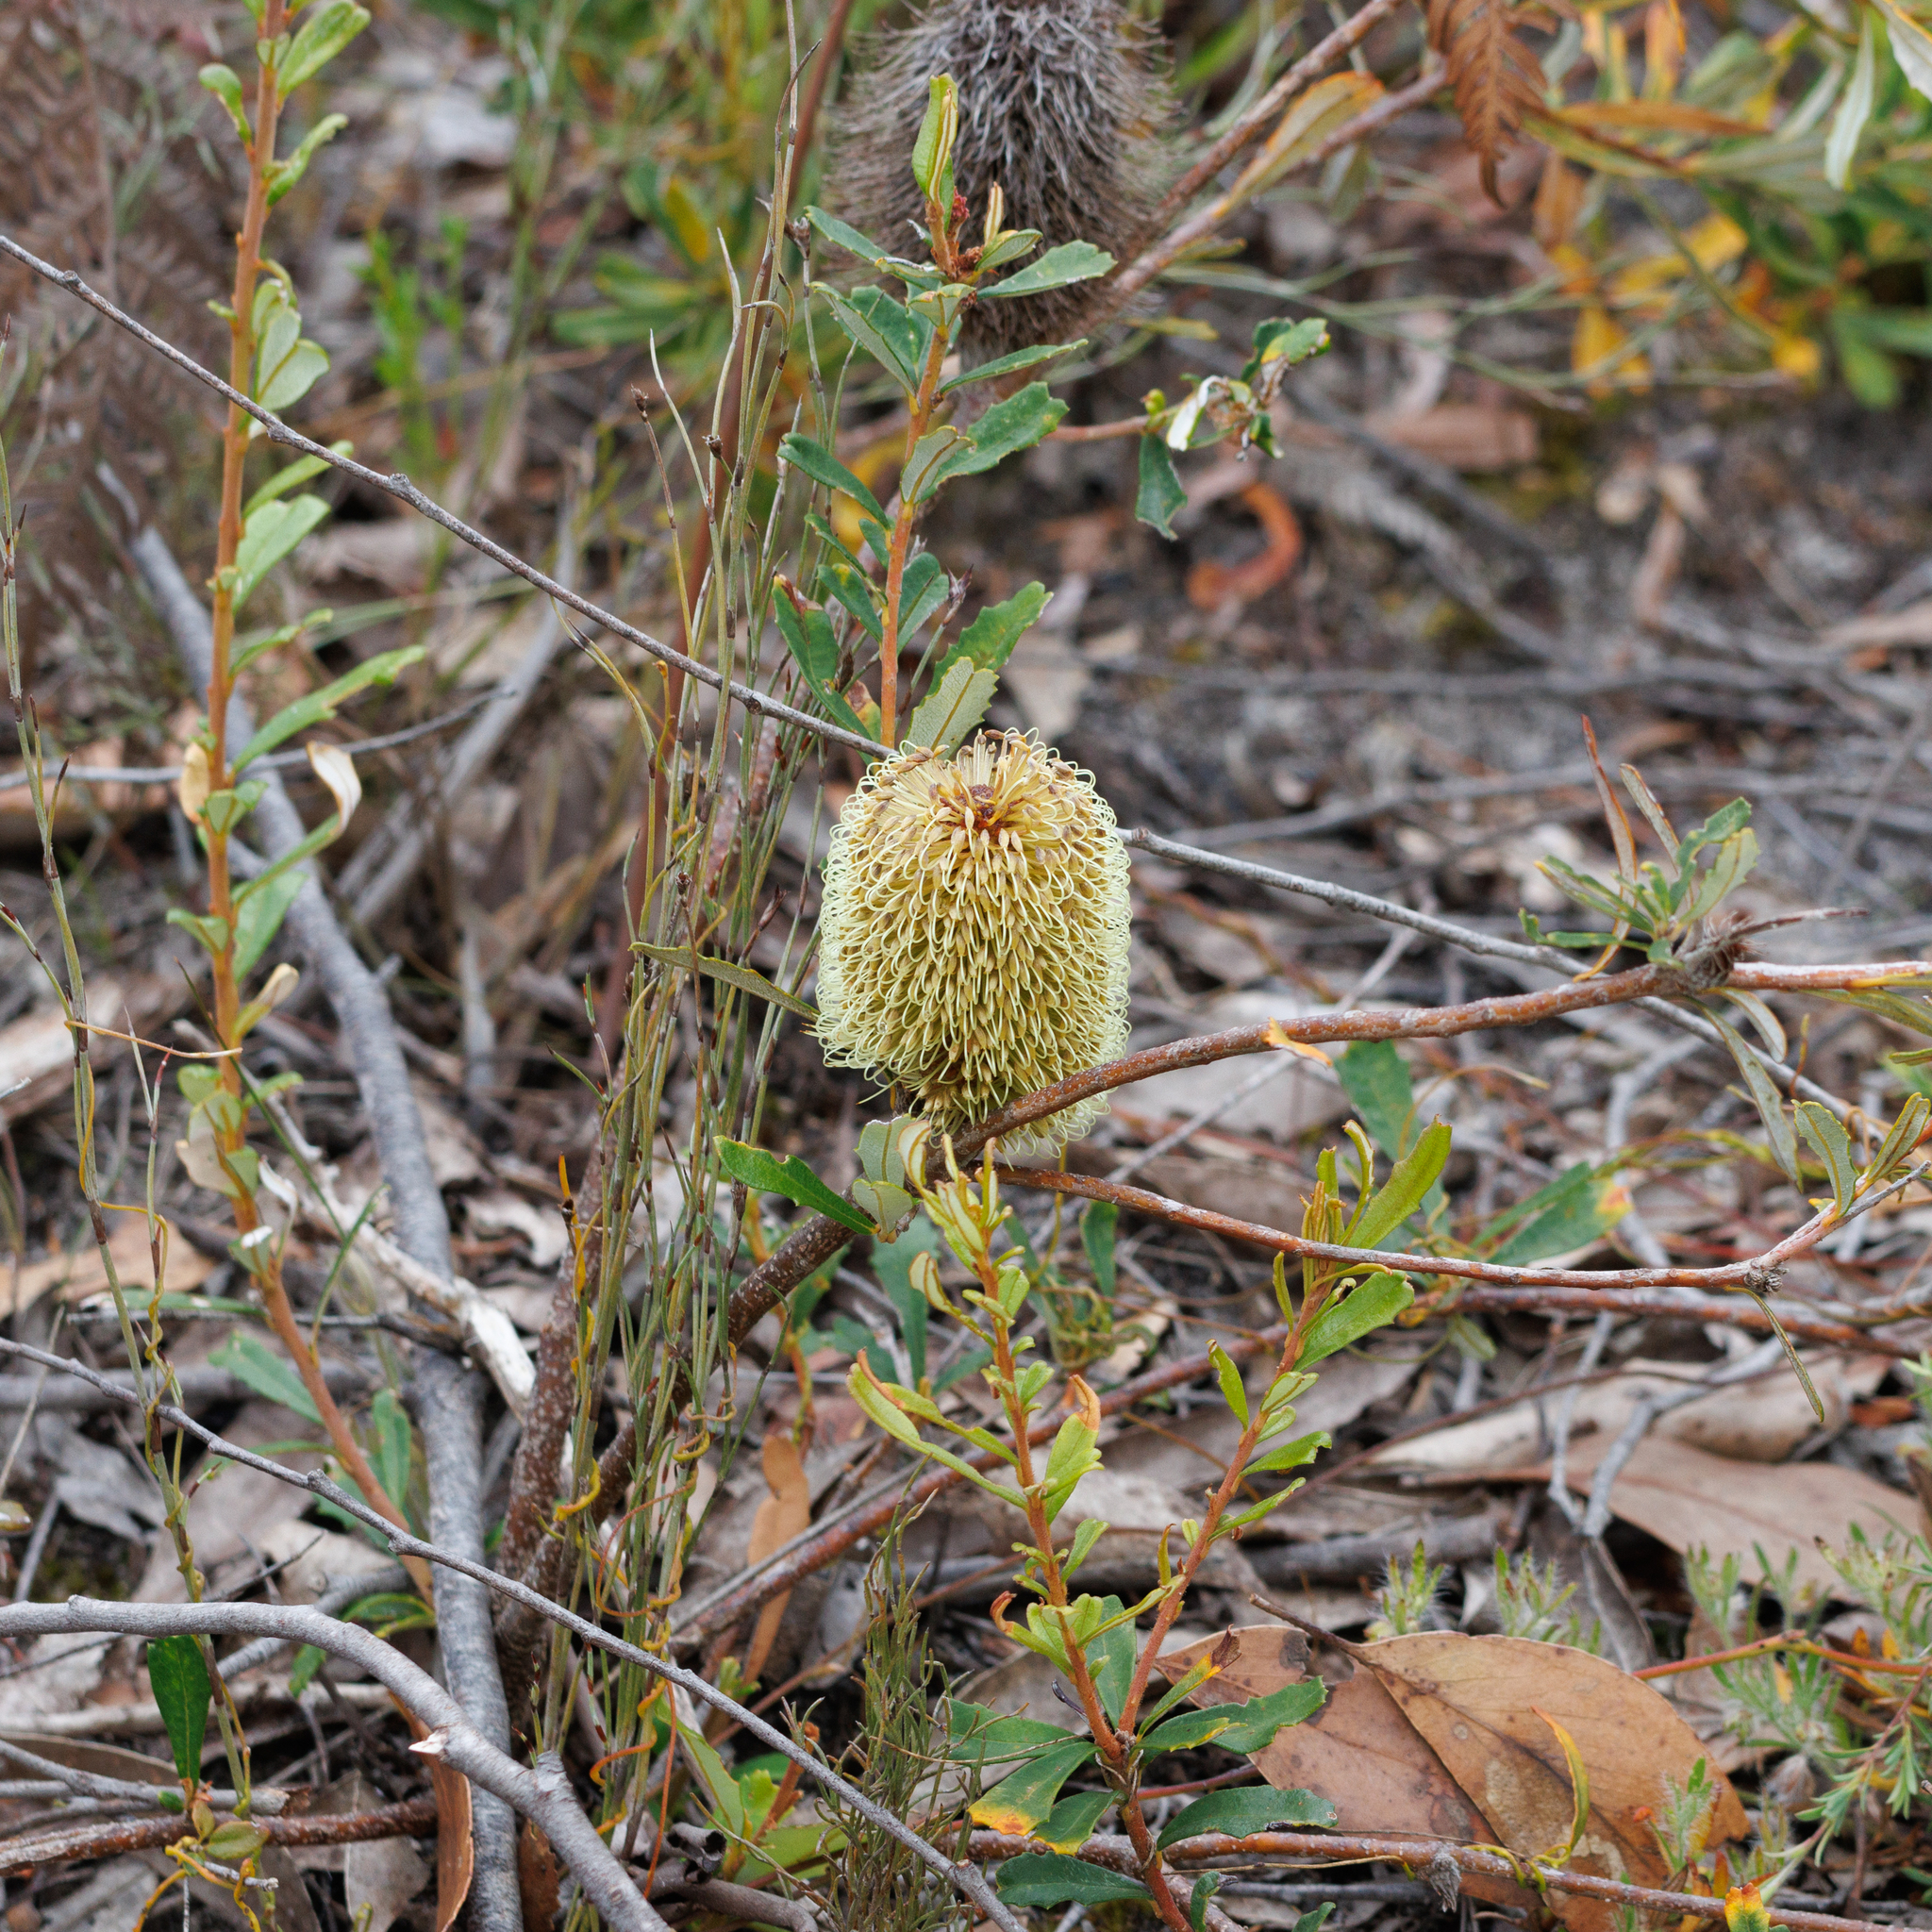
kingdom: Plantae
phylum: Tracheophyta
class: Magnoliopsida
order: Proteales
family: Proteaceae
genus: Banksia
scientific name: Banksia marginata
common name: Silver banksia
